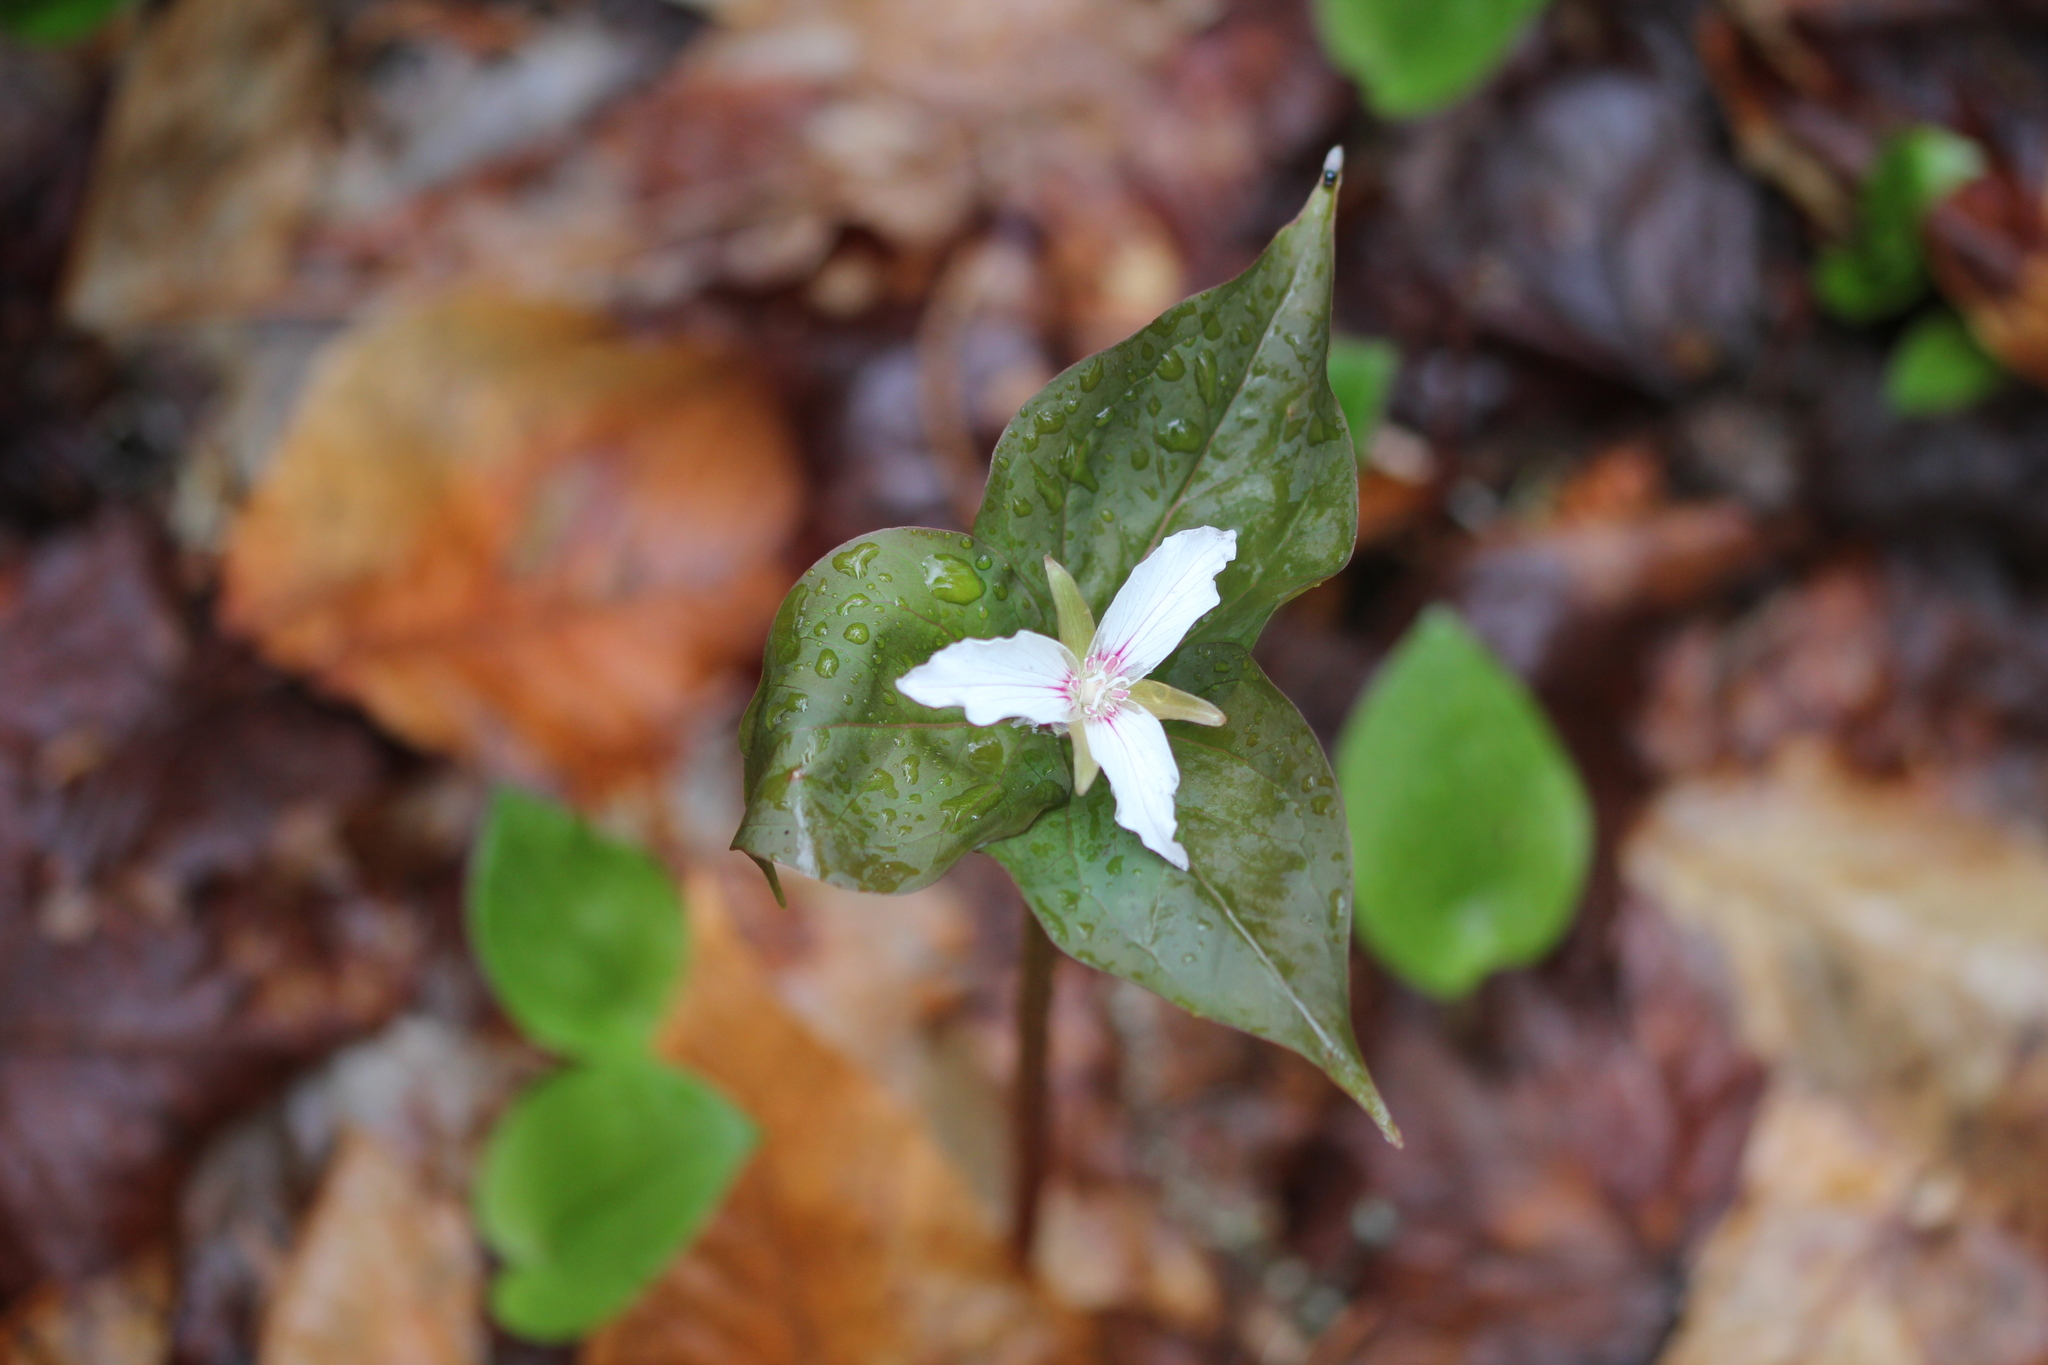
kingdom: Plantae
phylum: Tracheophyta
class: Liliopsida
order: Liliales
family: Melanthiaceae
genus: Trillium
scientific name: Trillium undulatum
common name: Paint trillium
